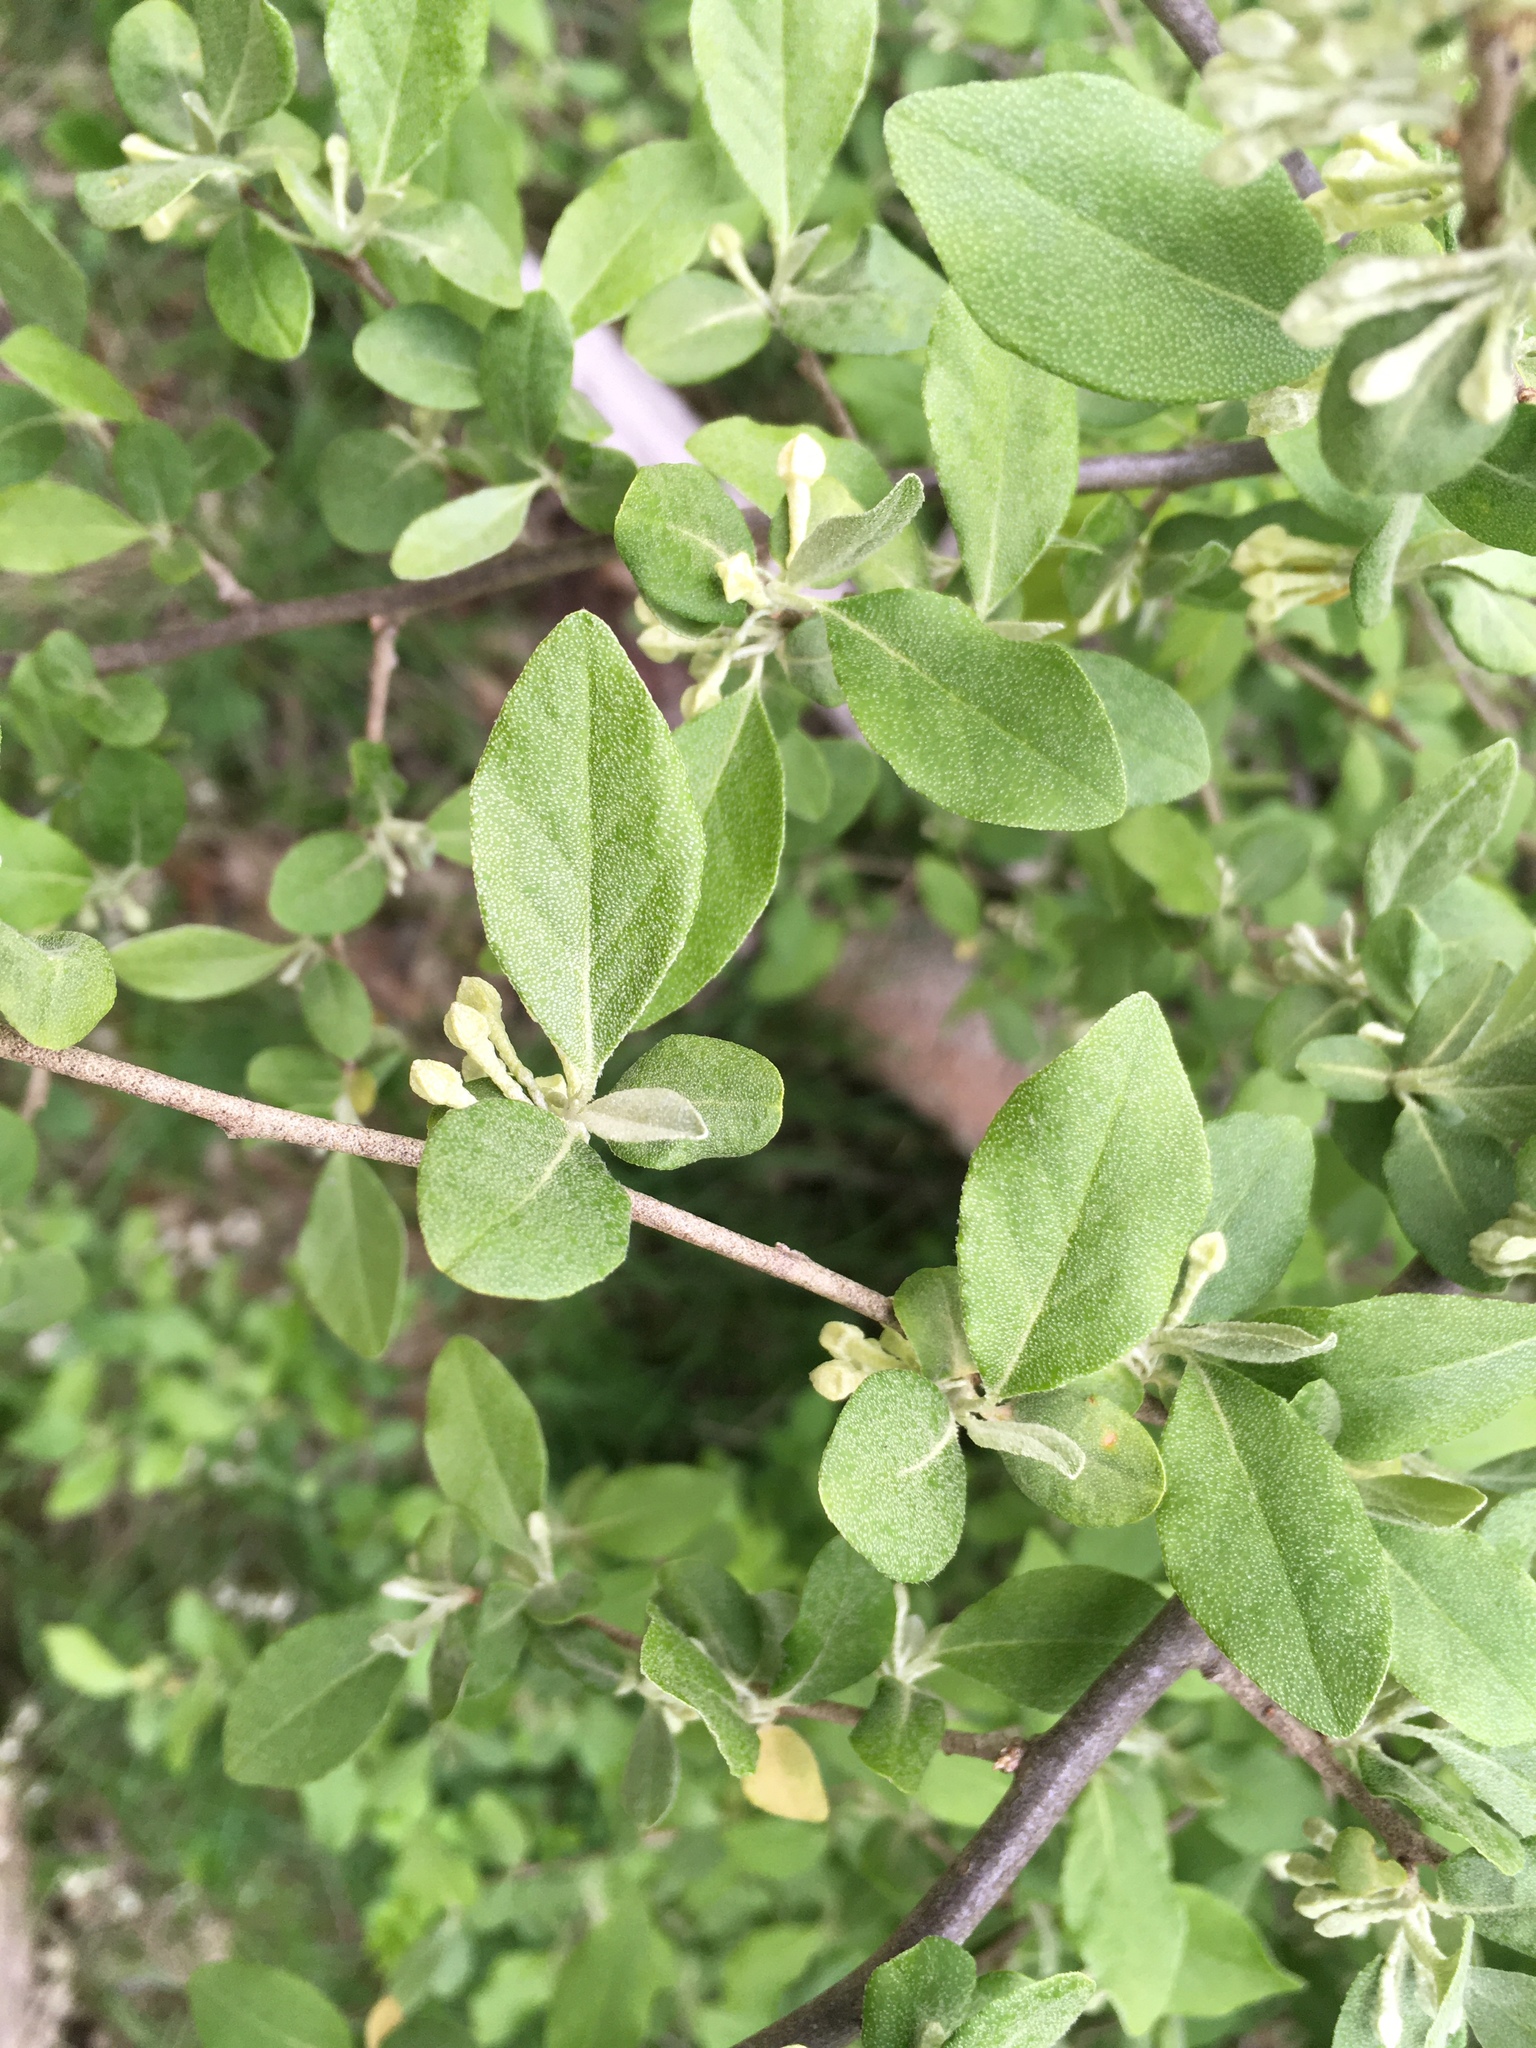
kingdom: Plantae
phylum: Tracheophyta
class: Magnoliopsida
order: Rosales
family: Elaeagnaceae
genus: Elaeagnus
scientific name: Elaeagnus umbellata
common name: Autumn olive
